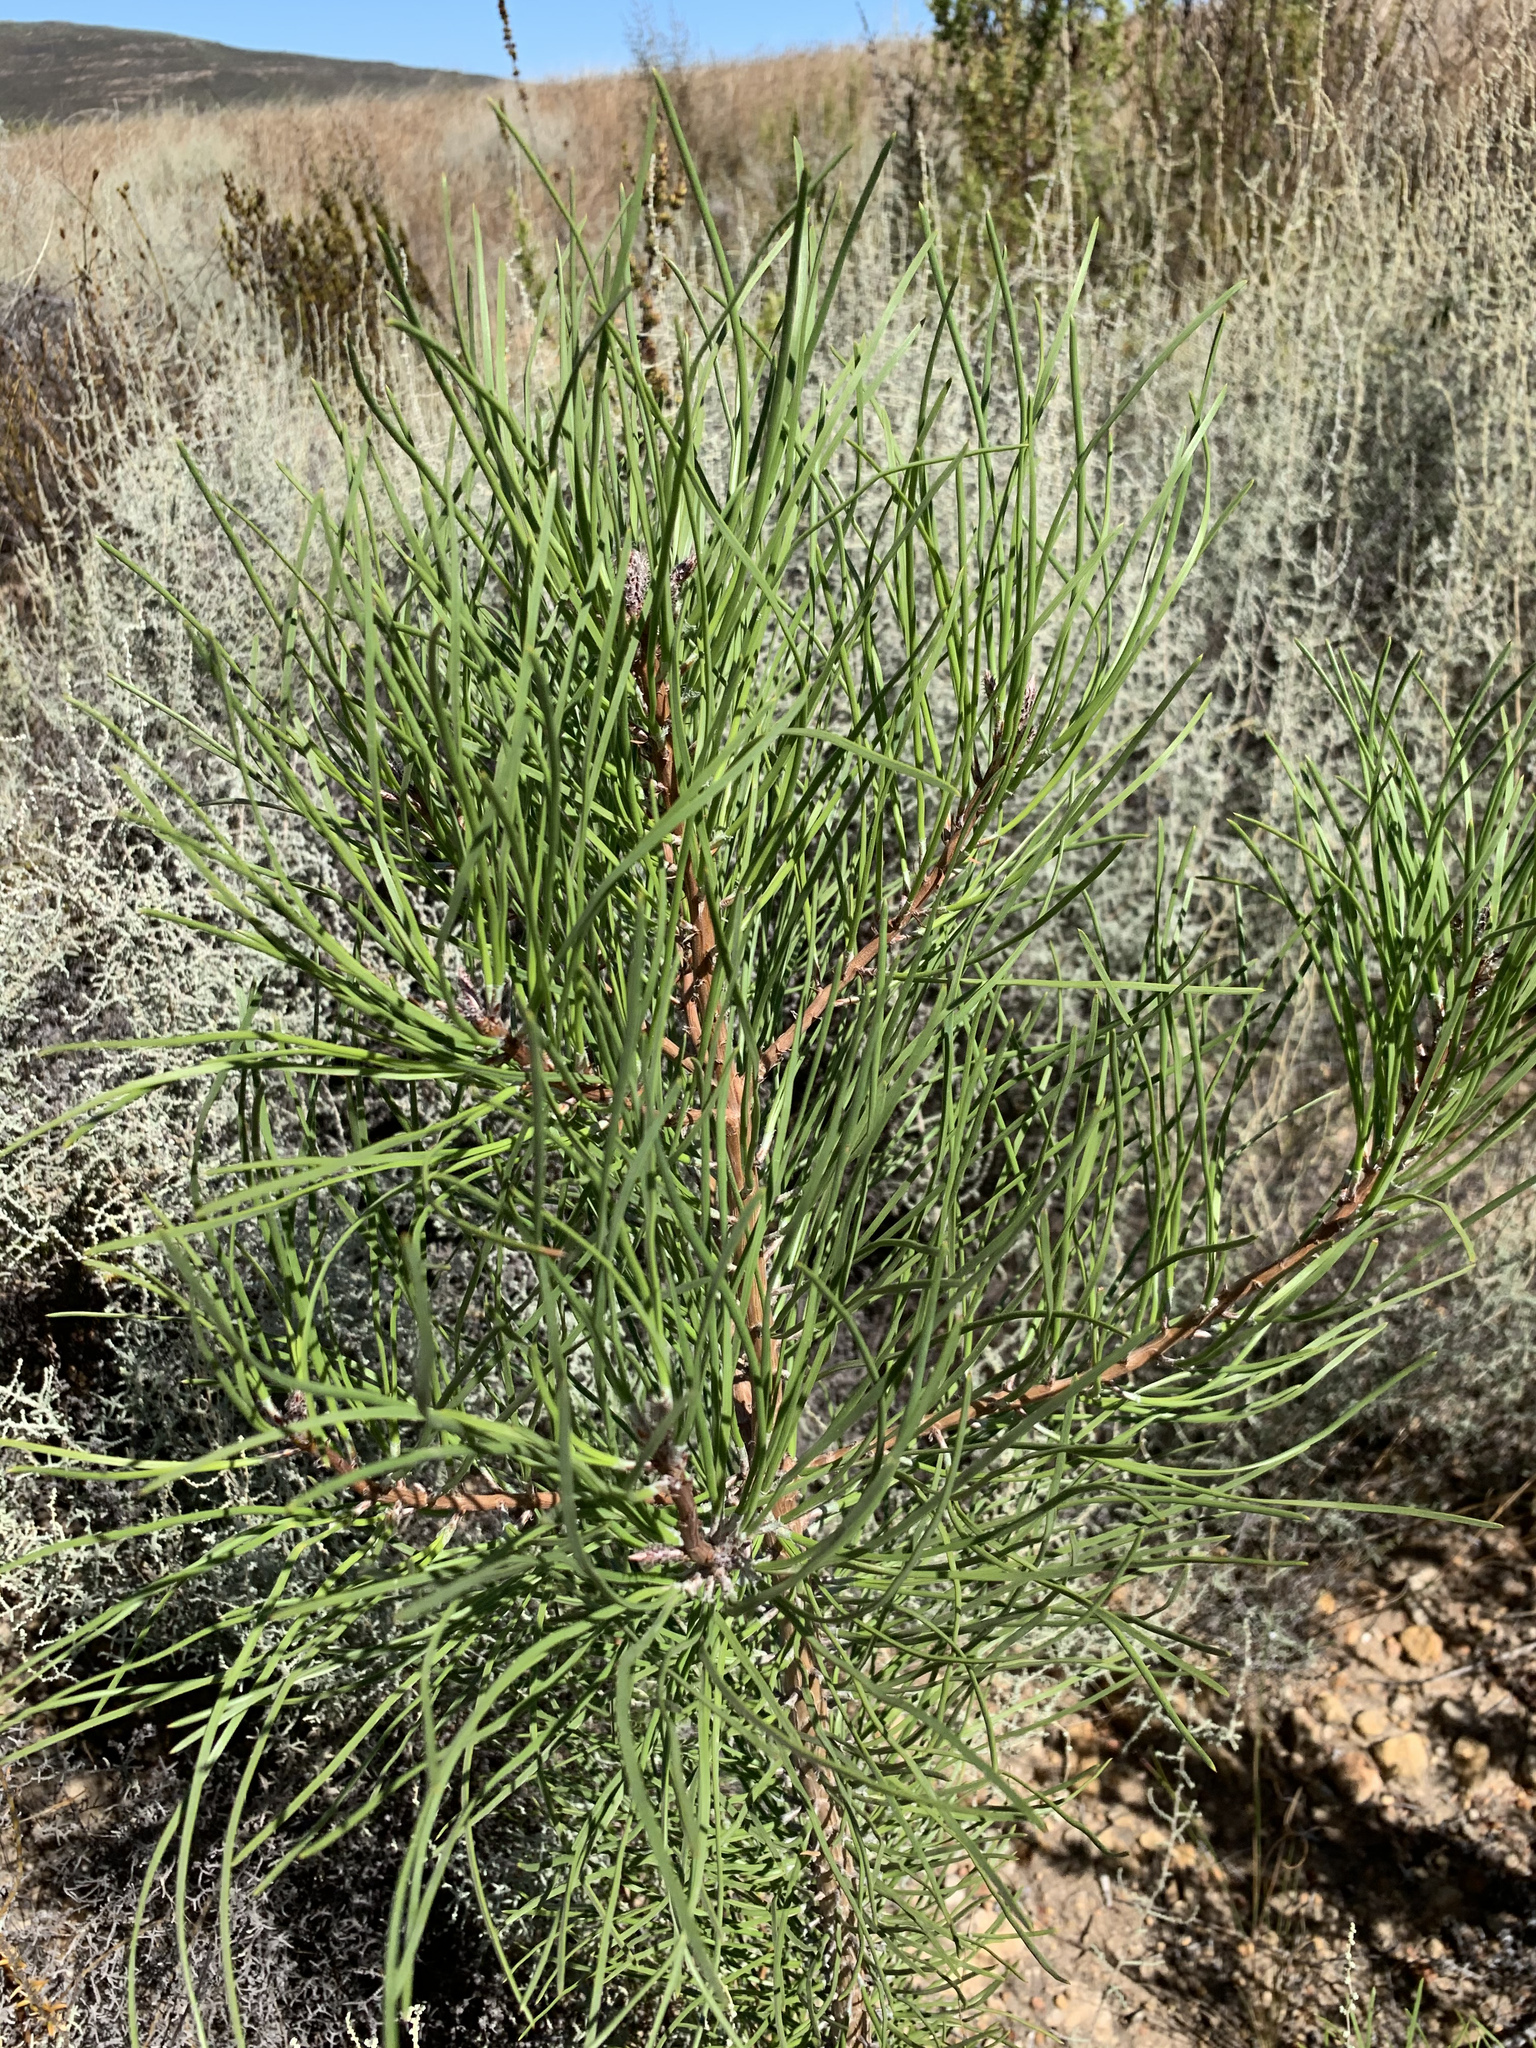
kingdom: Plantae
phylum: Tracheophyta
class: Pinopsida
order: Pinales
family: Pinaceae
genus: Pinus
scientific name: Pinus pinaster
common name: Maritime pine
